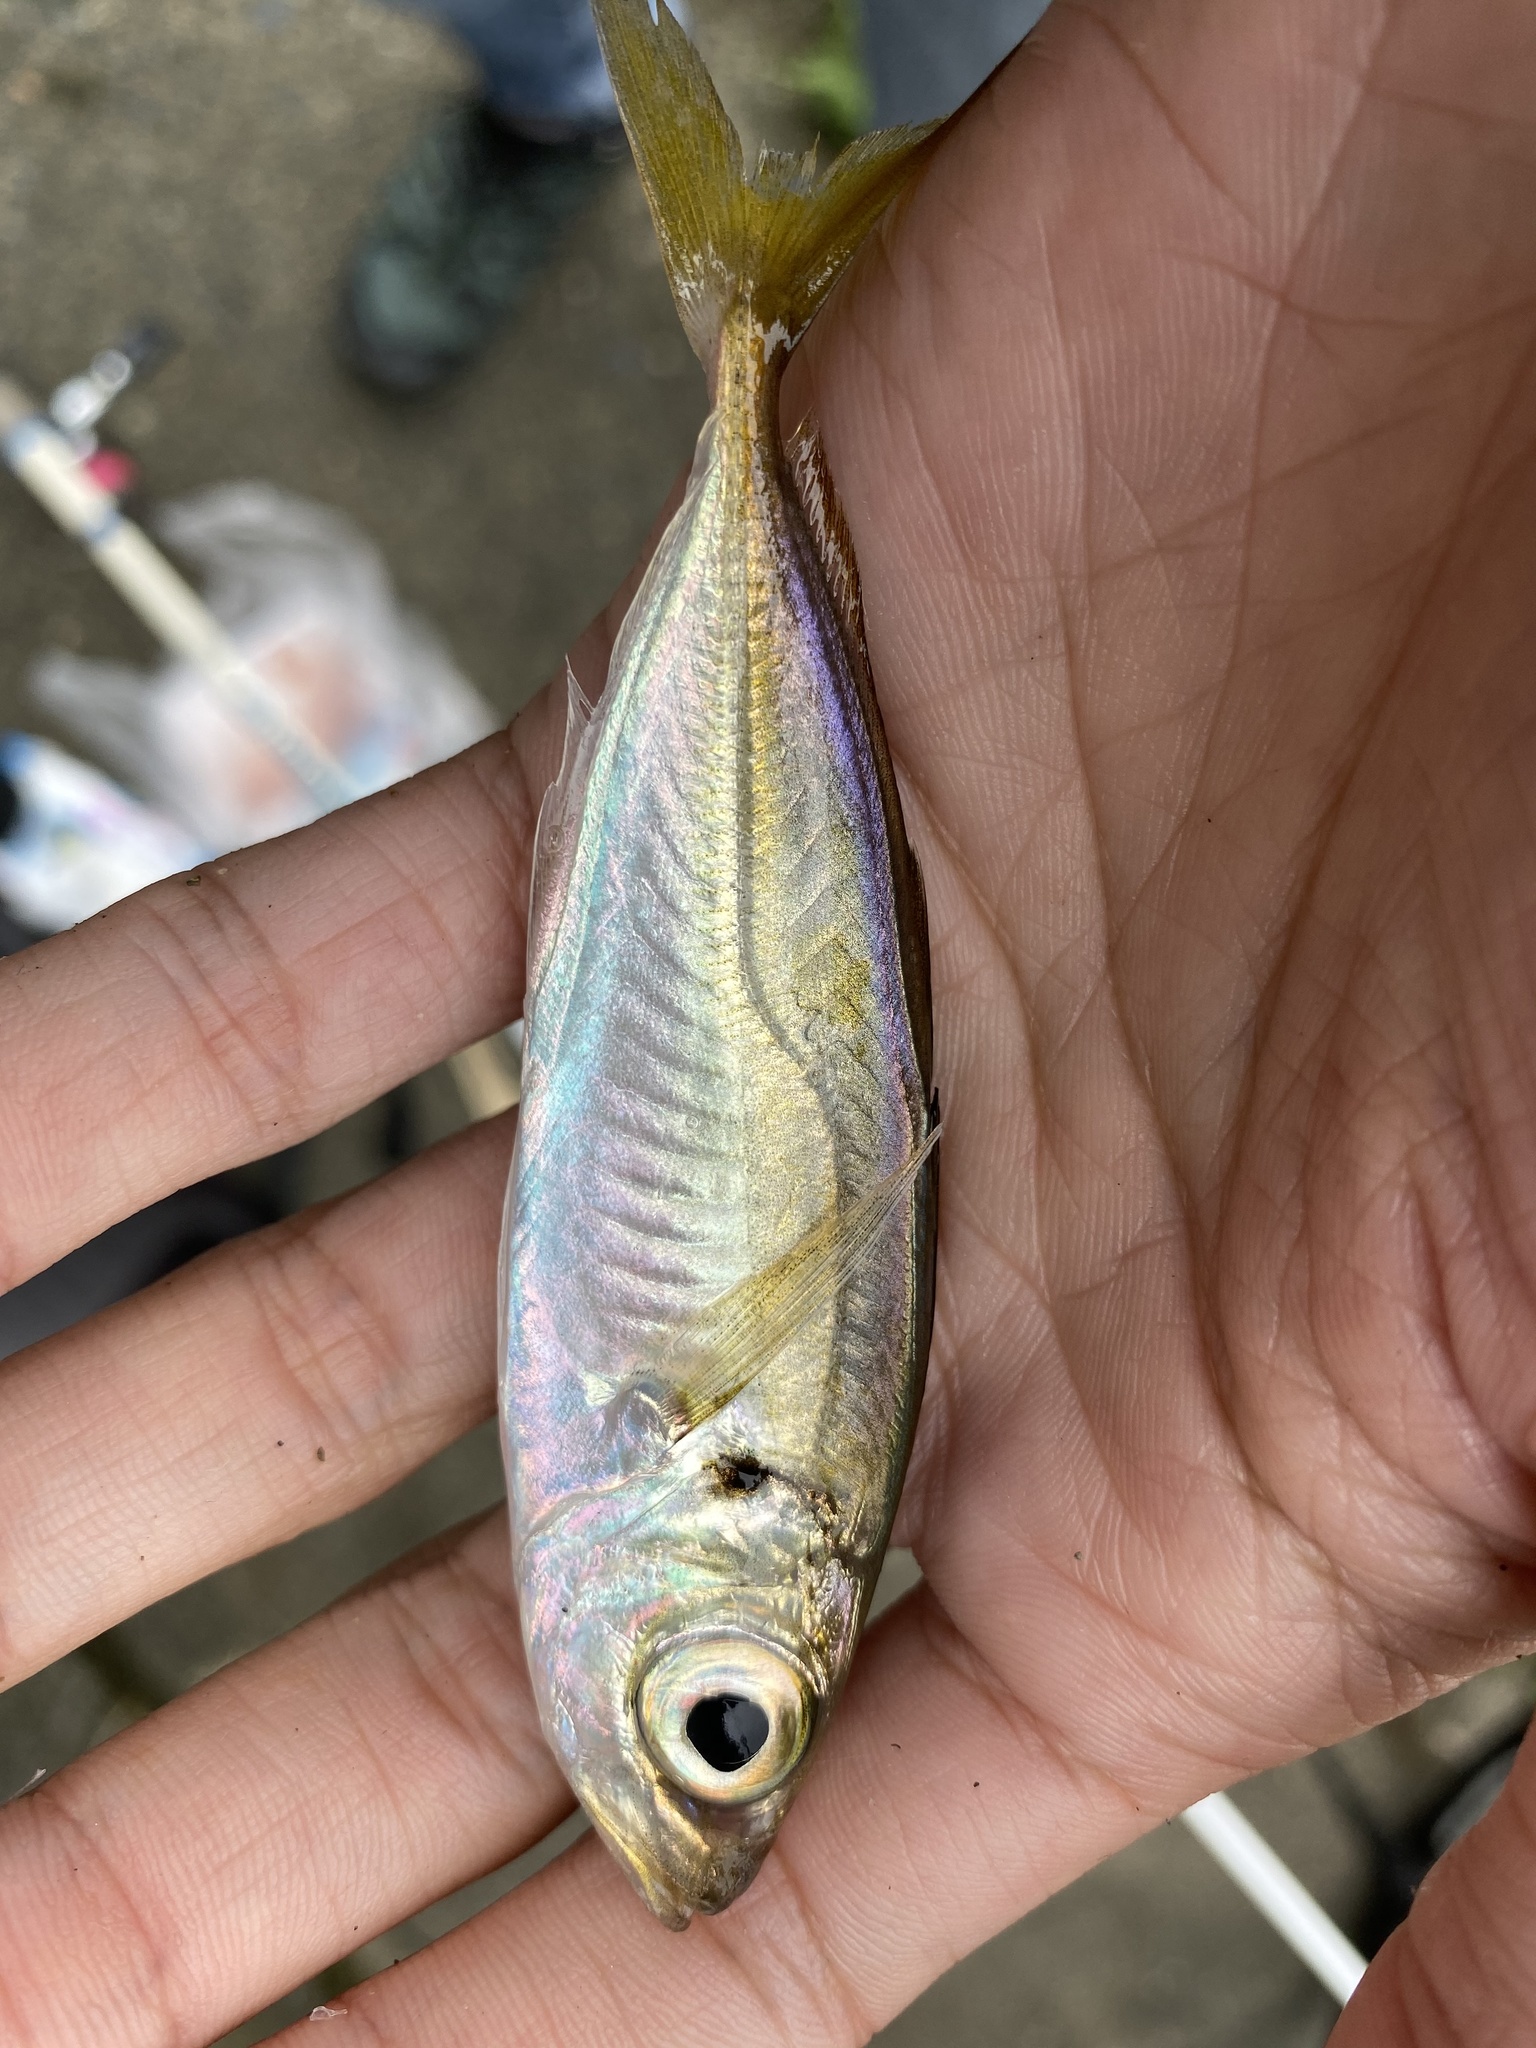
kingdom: Animalia
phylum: Chordata
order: Perciformes
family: Carangidae
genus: Trachurus
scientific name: Trachurus japonicus
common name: Japanese jack mackerel
